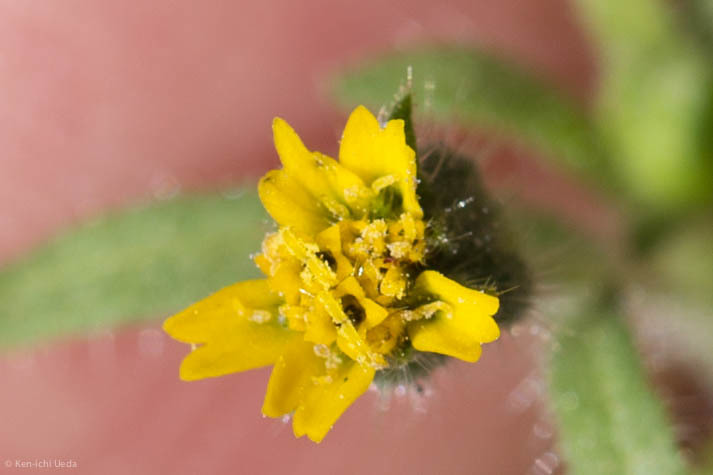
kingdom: Plantae
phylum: Tracheophyta
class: Magnoliopsida
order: Asterales
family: Asteraceae
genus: Layia
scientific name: Layia hieracioides
